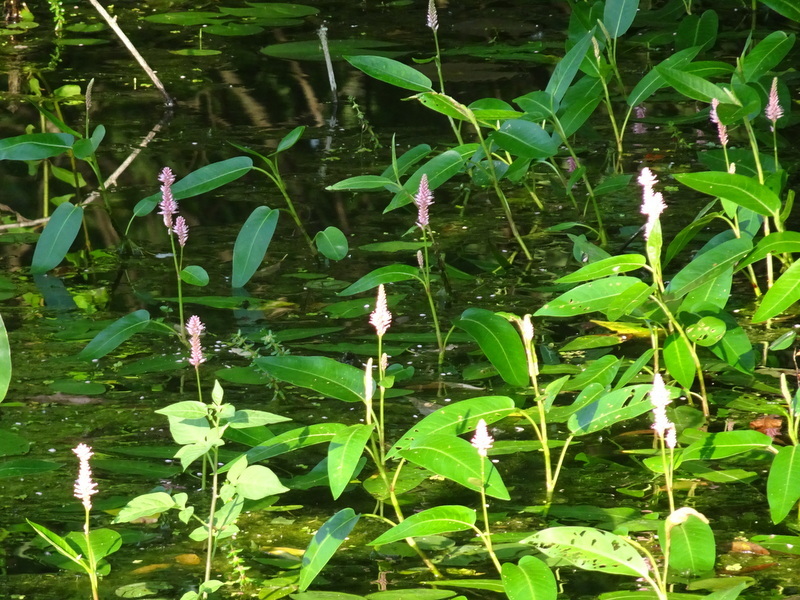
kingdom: Plantae
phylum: Tracheophyta
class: Magnoliopsida
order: Caryophyllales
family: Polygonaceae
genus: Persicaria
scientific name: Persicaria amphibia
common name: Amphibious bistort
